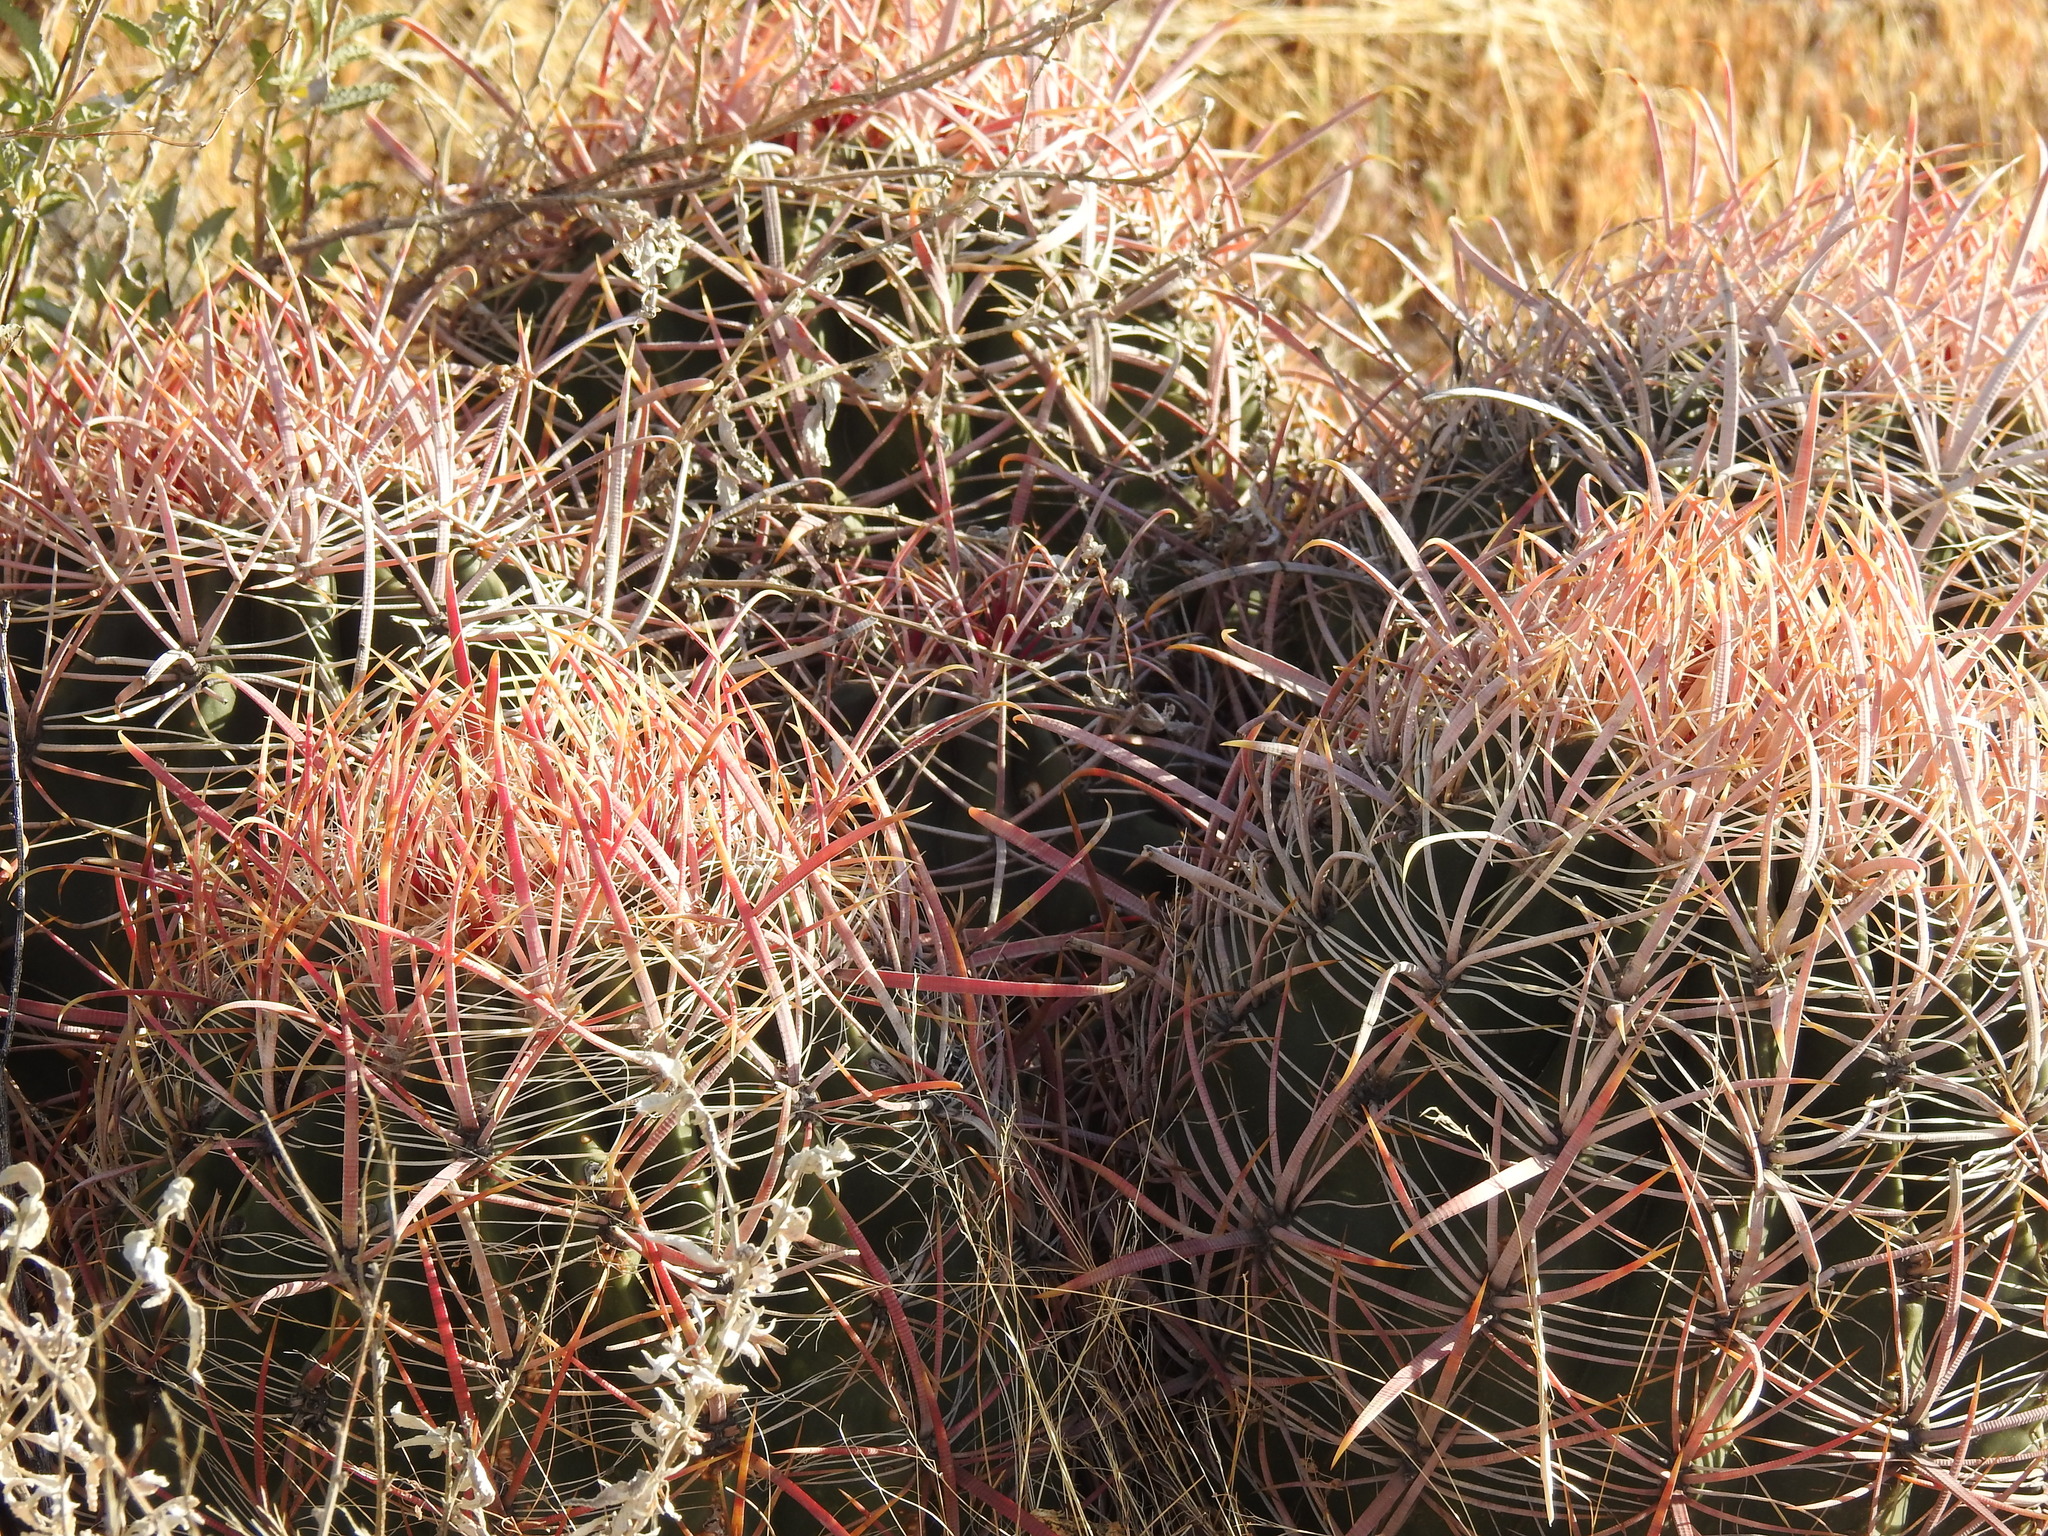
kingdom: Plantae
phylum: Tracheophyta
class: Magnoliopsida
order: Caryophyllales
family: Cactaceae
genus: Ferocactus
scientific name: Ferocactus cylindraceus
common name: California barrel cactus
